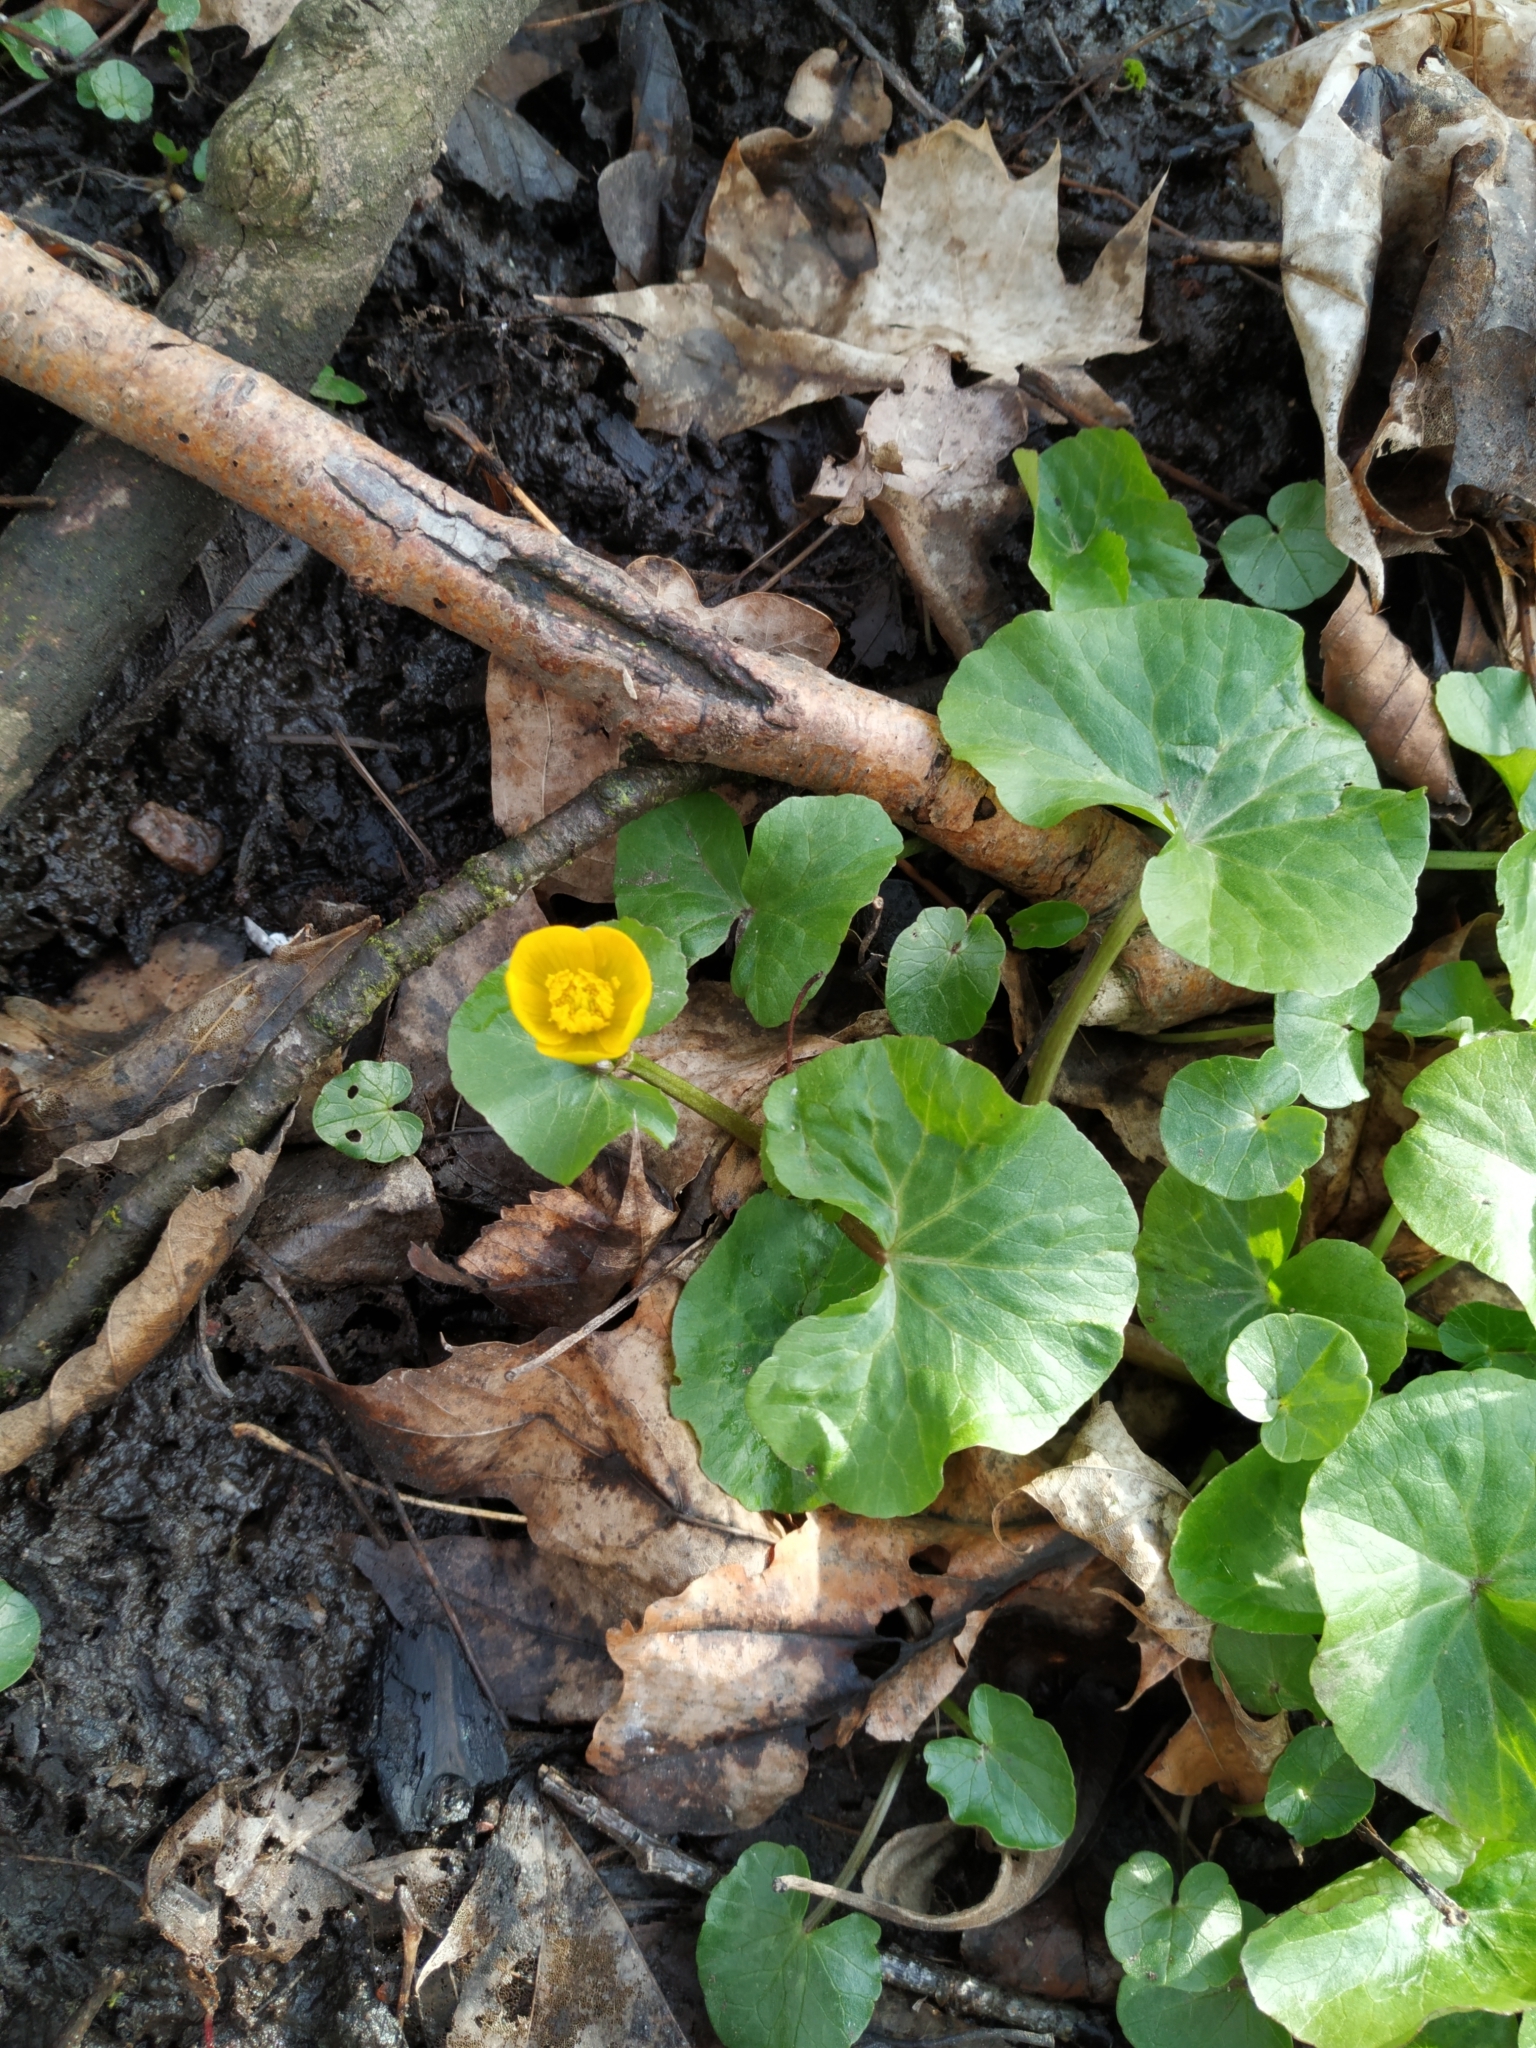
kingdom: Plantae
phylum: Tracheophyta
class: Magnoliopsida
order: Ranunculales
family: Ranunculaceae
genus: Caltha
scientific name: Caltha palustris
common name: Marsh marigold
